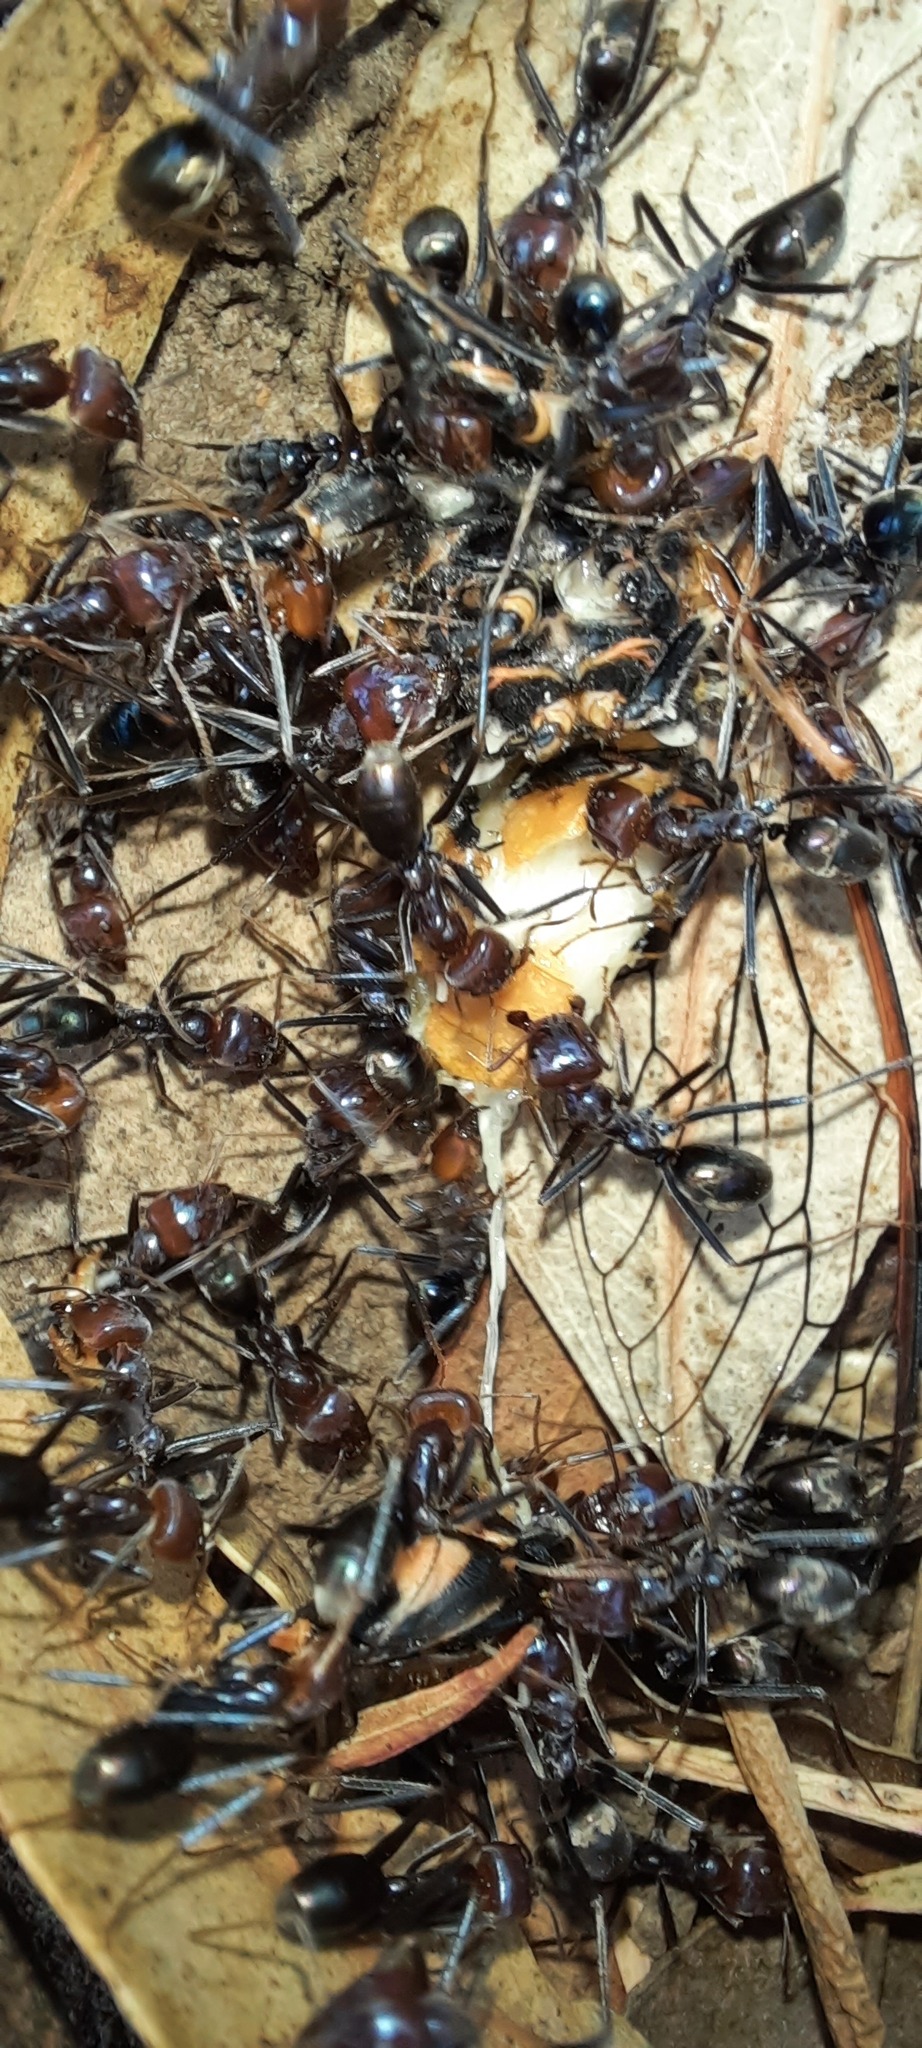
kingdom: Animalia
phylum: Arthropoda
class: Insecta
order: Hymenoptera
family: Formicidae
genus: Iridomyrmex
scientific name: Iridomyrmex purpureus
